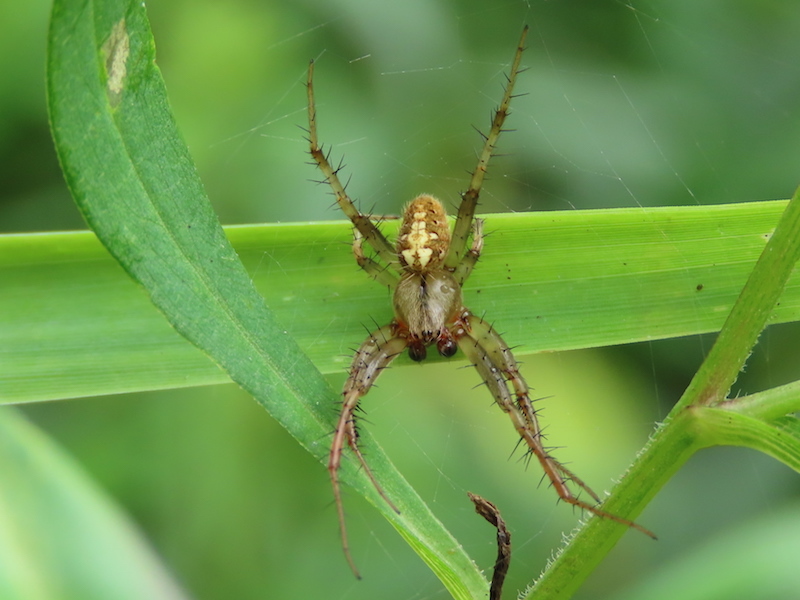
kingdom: Animalia
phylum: Arthropoda
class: Arachnida
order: Araneae
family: Araneidae
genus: Neoscona
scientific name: Neoscona arabesca
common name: Orb weavers
